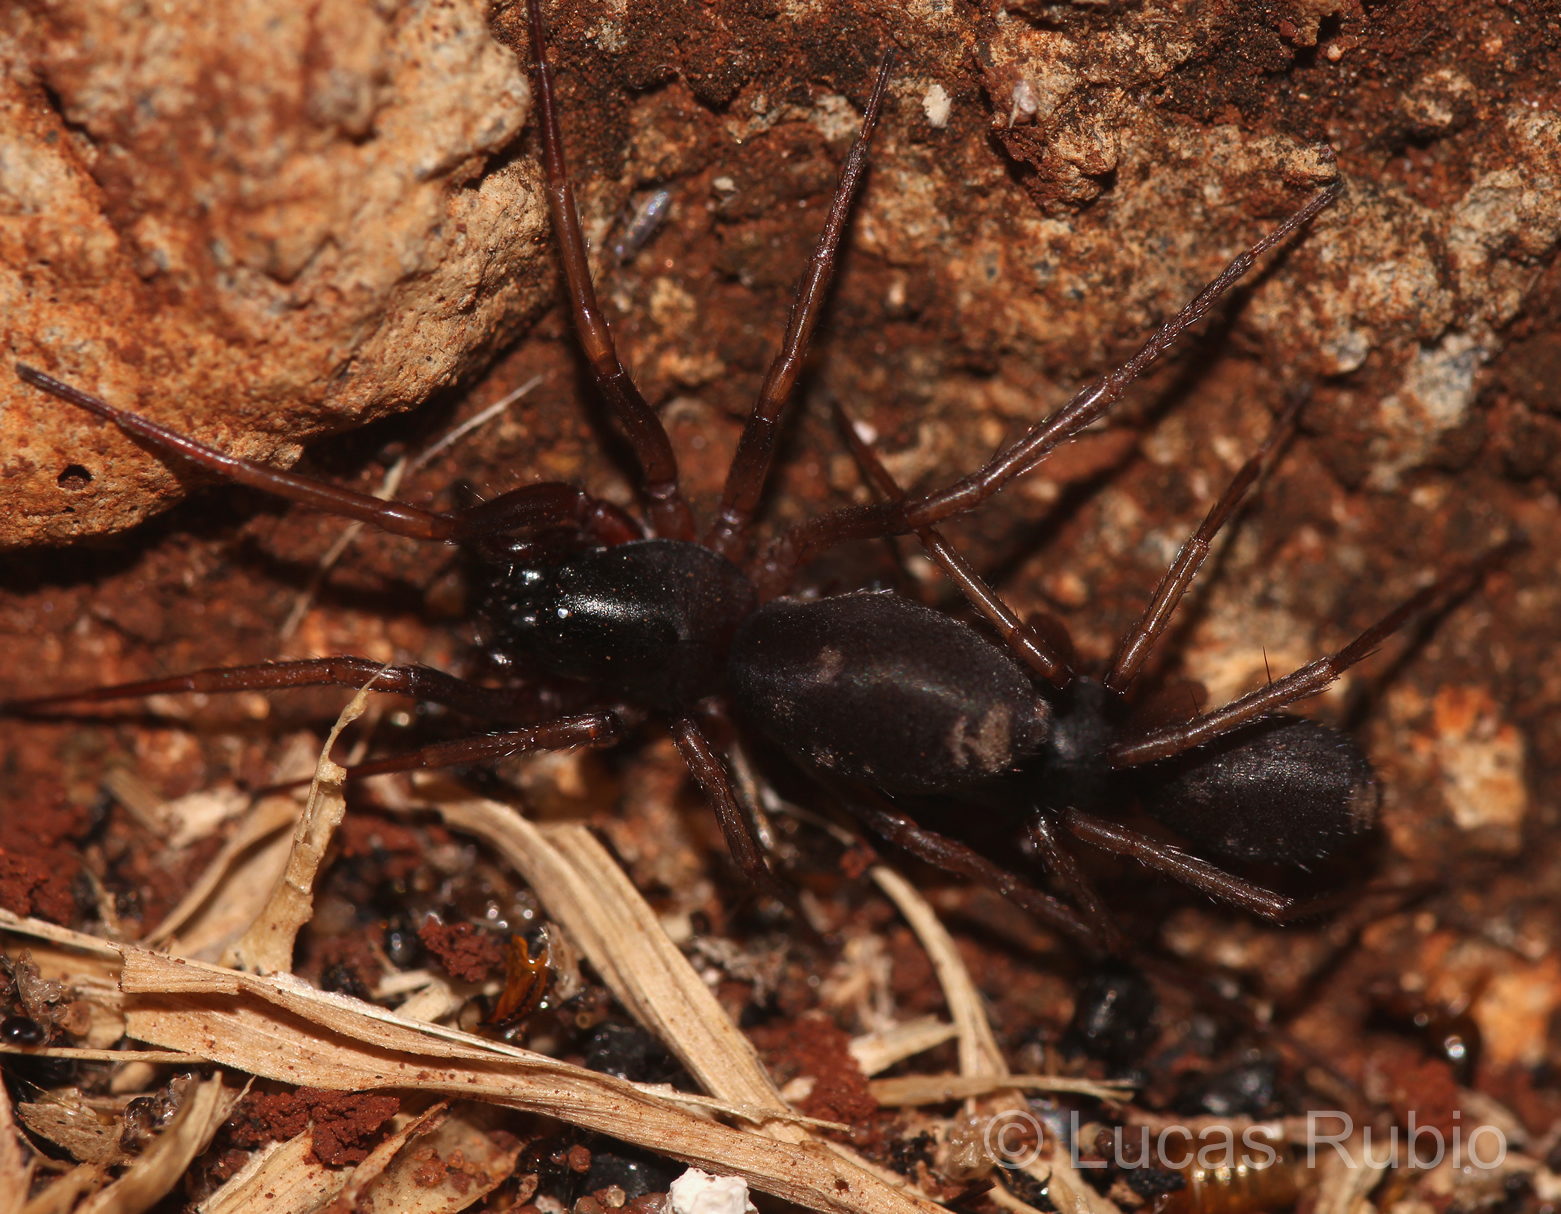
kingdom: Animalia
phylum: Arthropoda
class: Arachnida
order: Araneae
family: Corinnidae
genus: Falconina
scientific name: Falconina gracilis
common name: Antmimic spider
